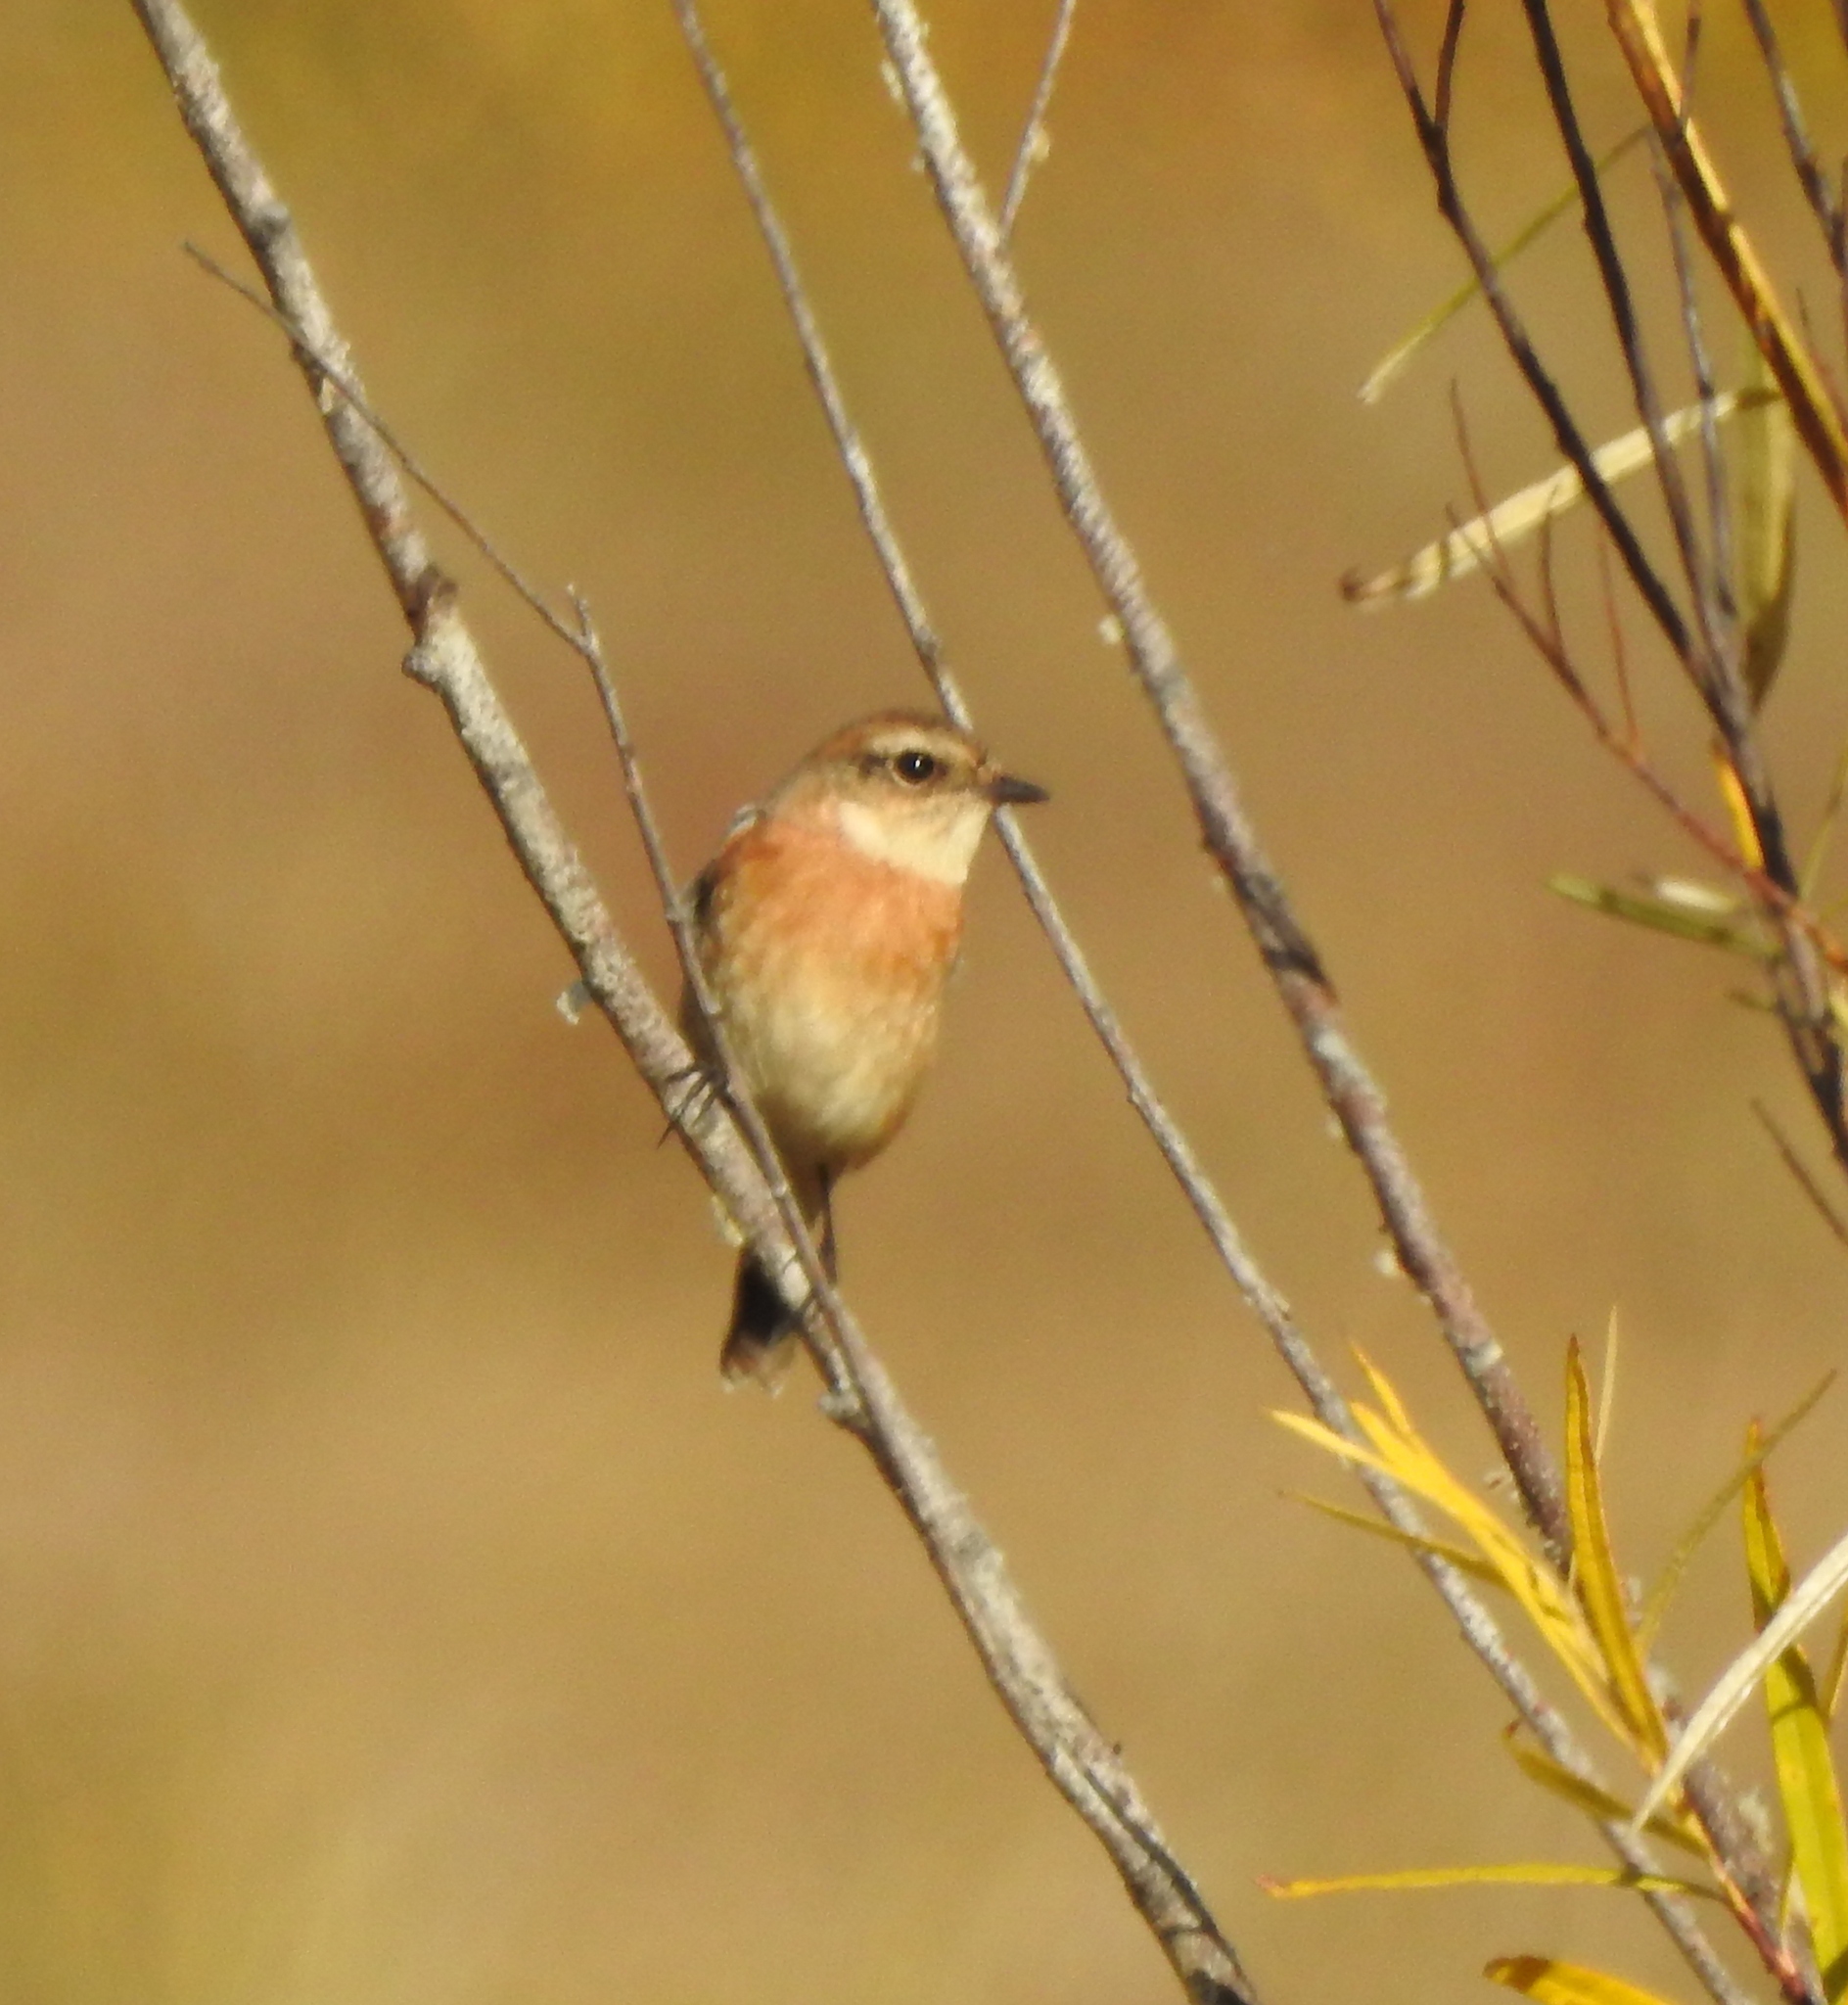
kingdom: Animalia
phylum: Chordata
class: Aves
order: Passeriformes
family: Muscicapidae
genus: Saxicola
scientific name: Saxicola maurus
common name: Siberian stonechat
